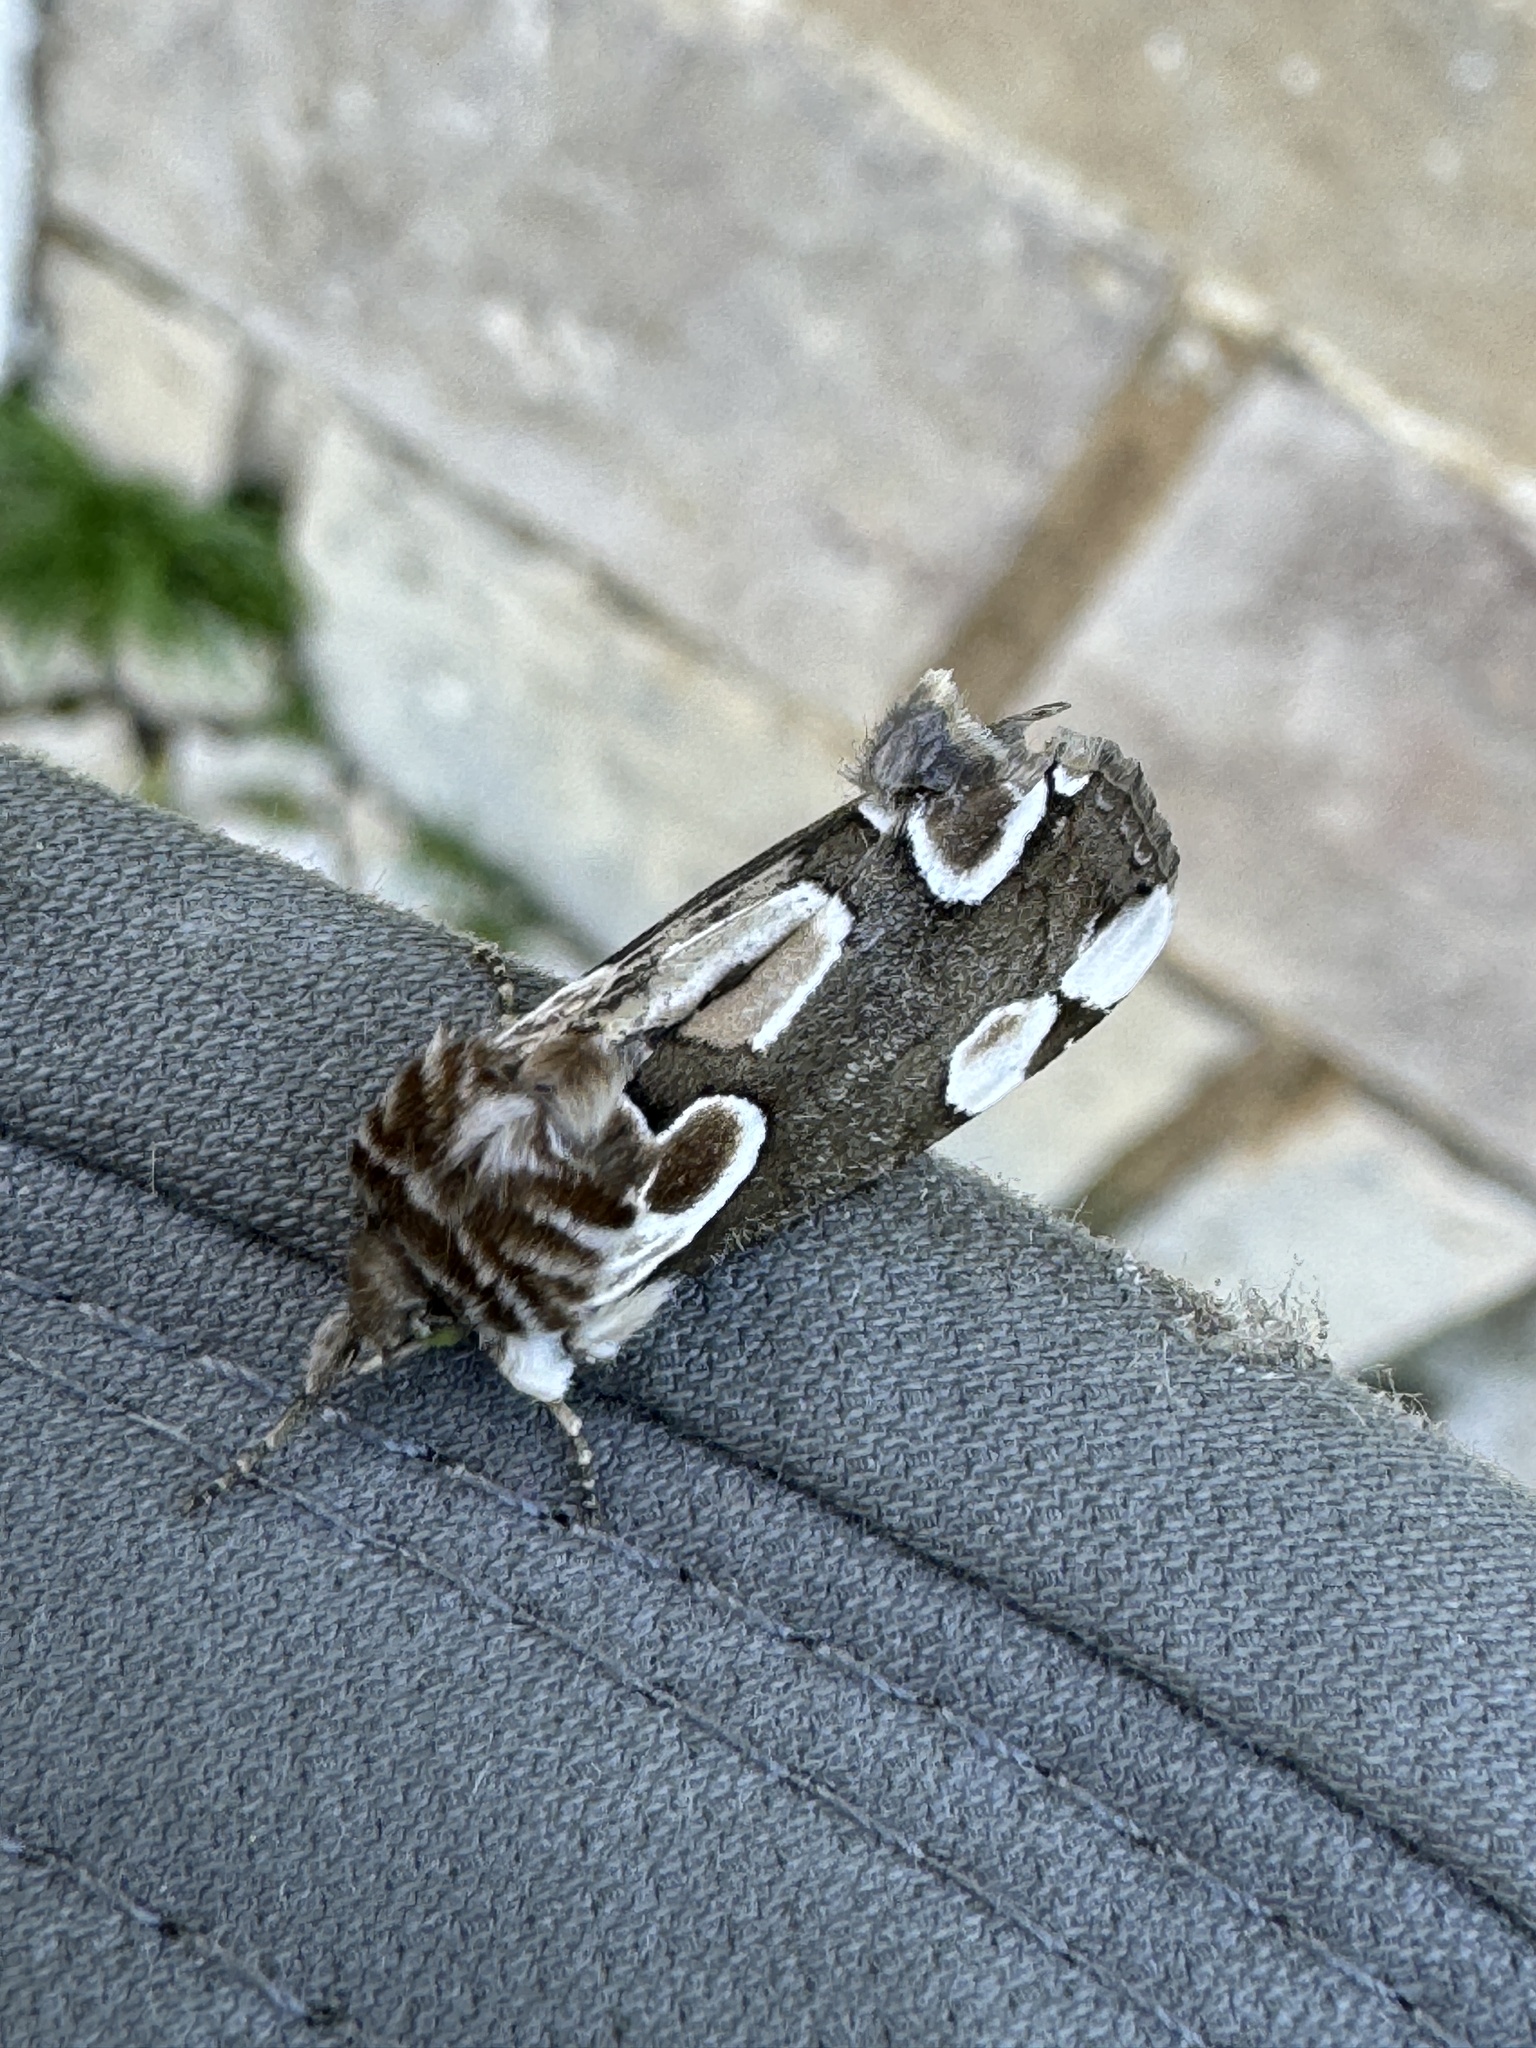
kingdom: Animalia
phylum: Arthropoda
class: Insecta
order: Lepidoptera
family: Drepanidae
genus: Thyatira
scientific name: Thyatira batis
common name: Peach blossom
